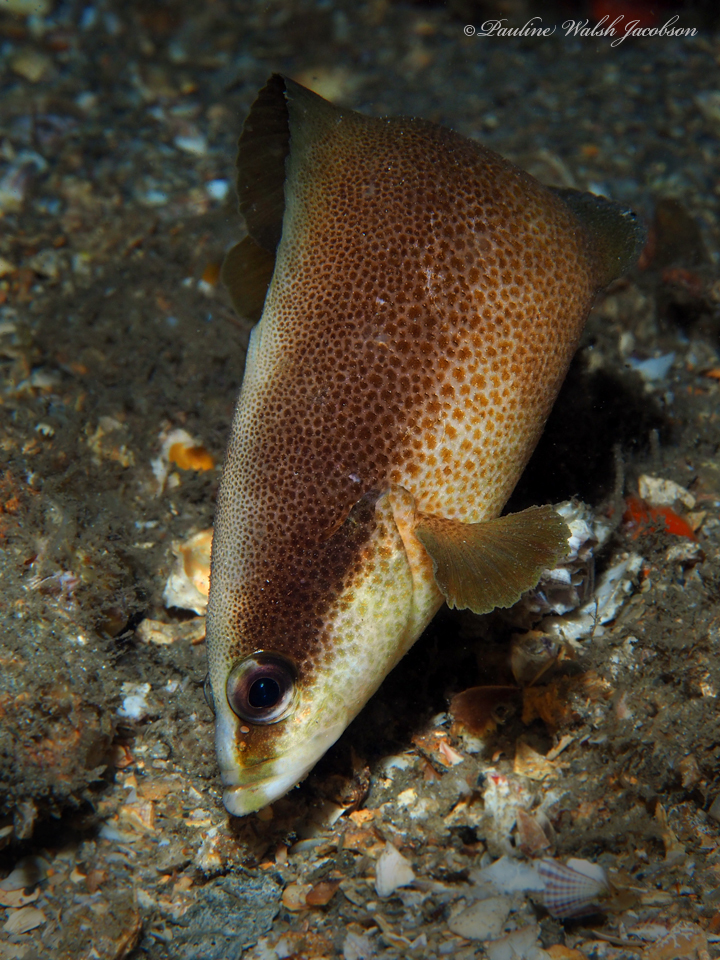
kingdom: Animalia
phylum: Chordata
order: Perciformes
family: Serranidae
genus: Rypticus
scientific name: Rypticus bistrispinus
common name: Freckled soapfish
